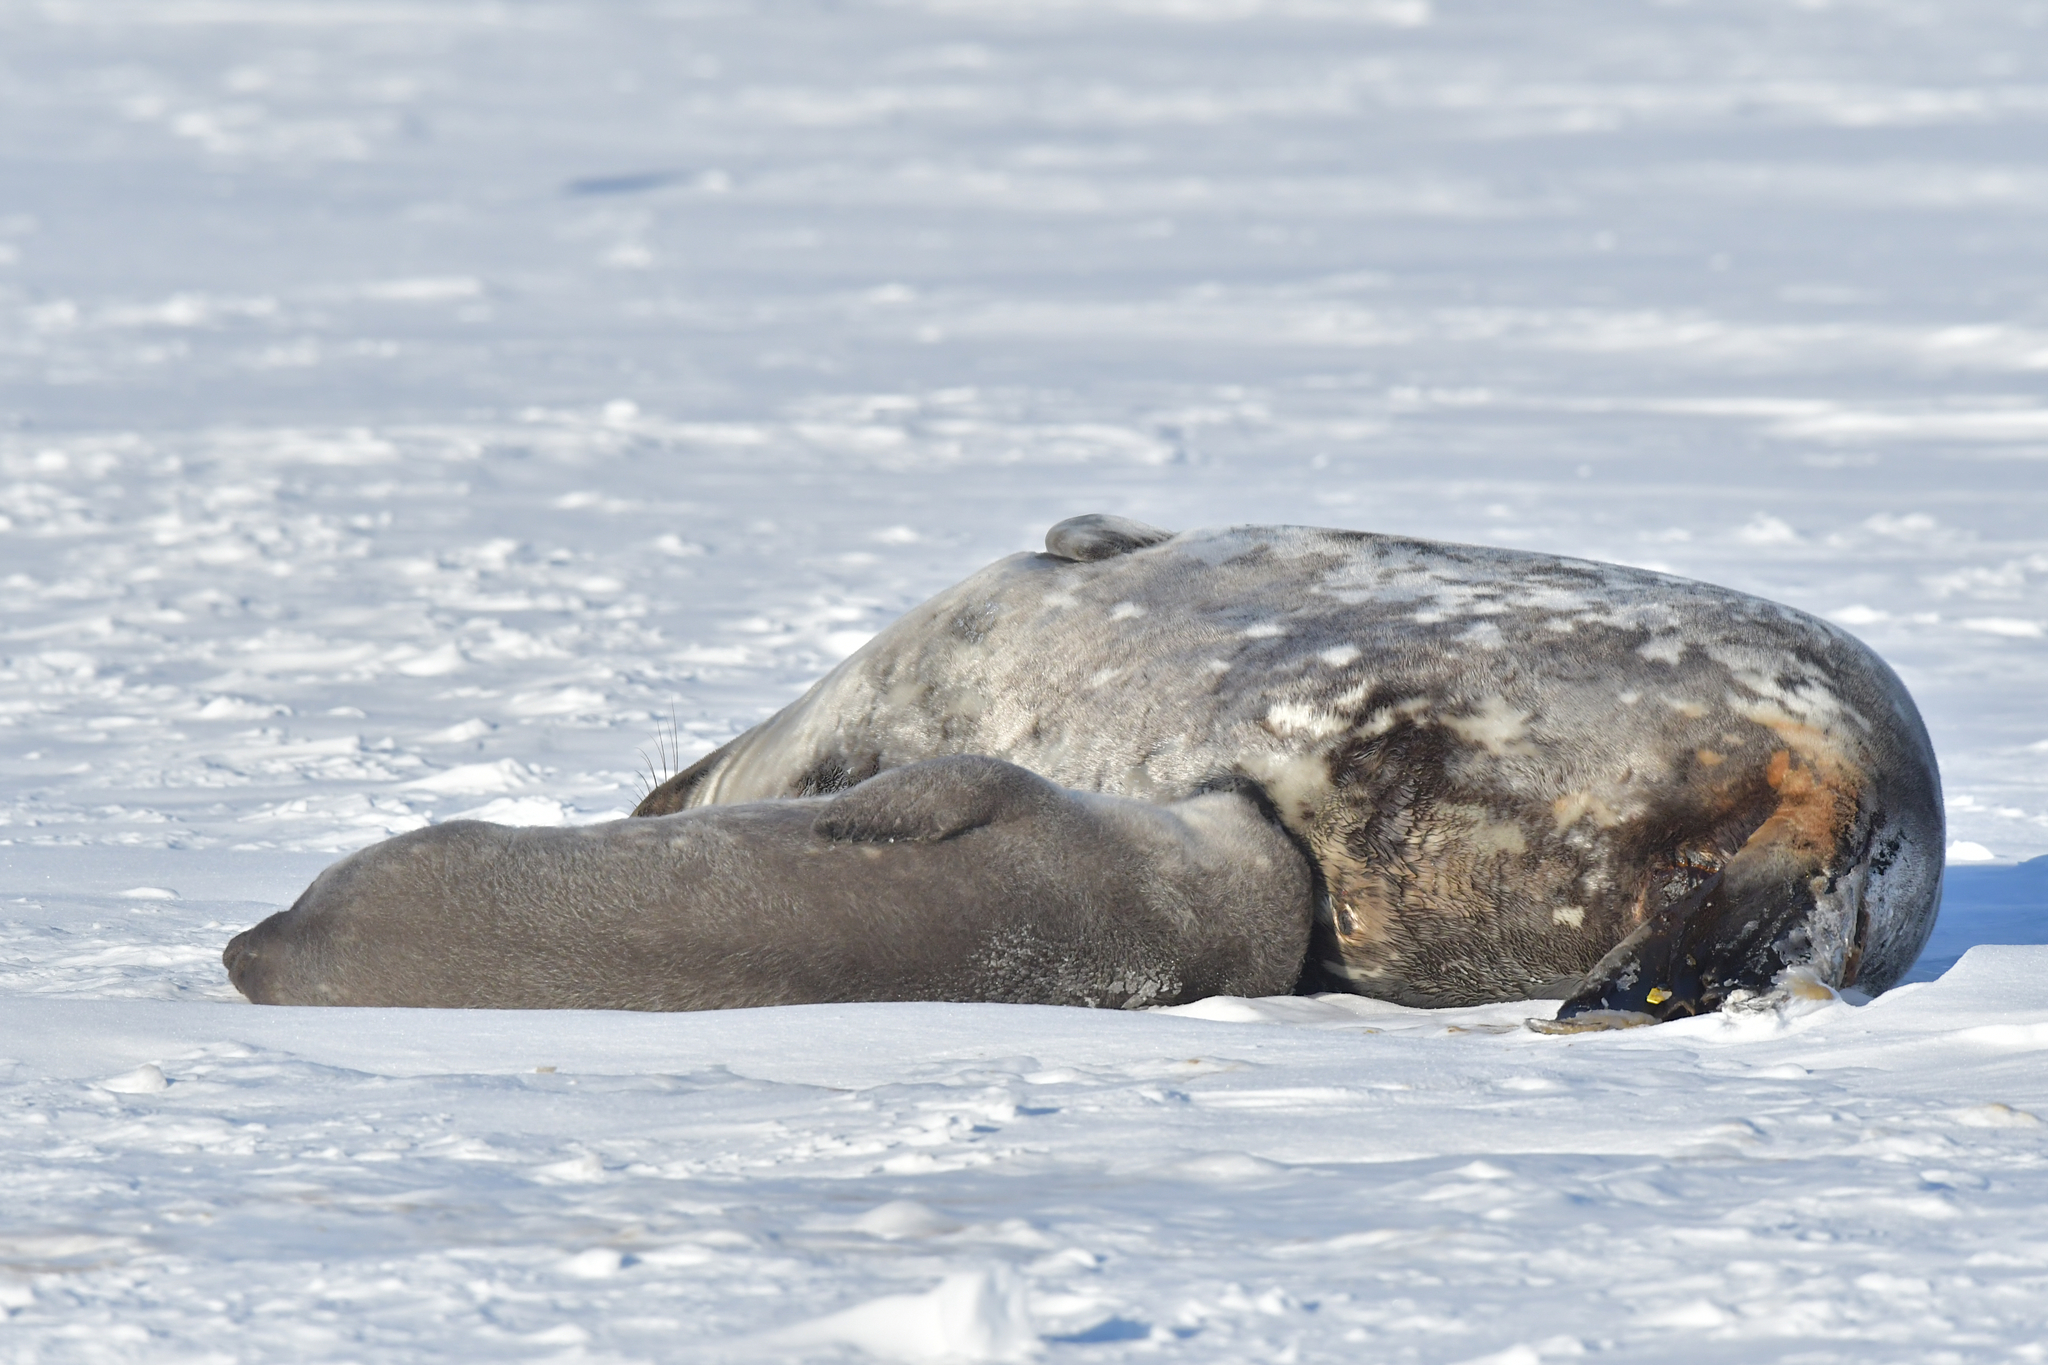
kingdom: Animalia
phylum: Chordata
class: Mammalia
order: Carnivora
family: Phocidae
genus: Leptonychotes
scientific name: Leptonychotes weddellii
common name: Weddell seal
